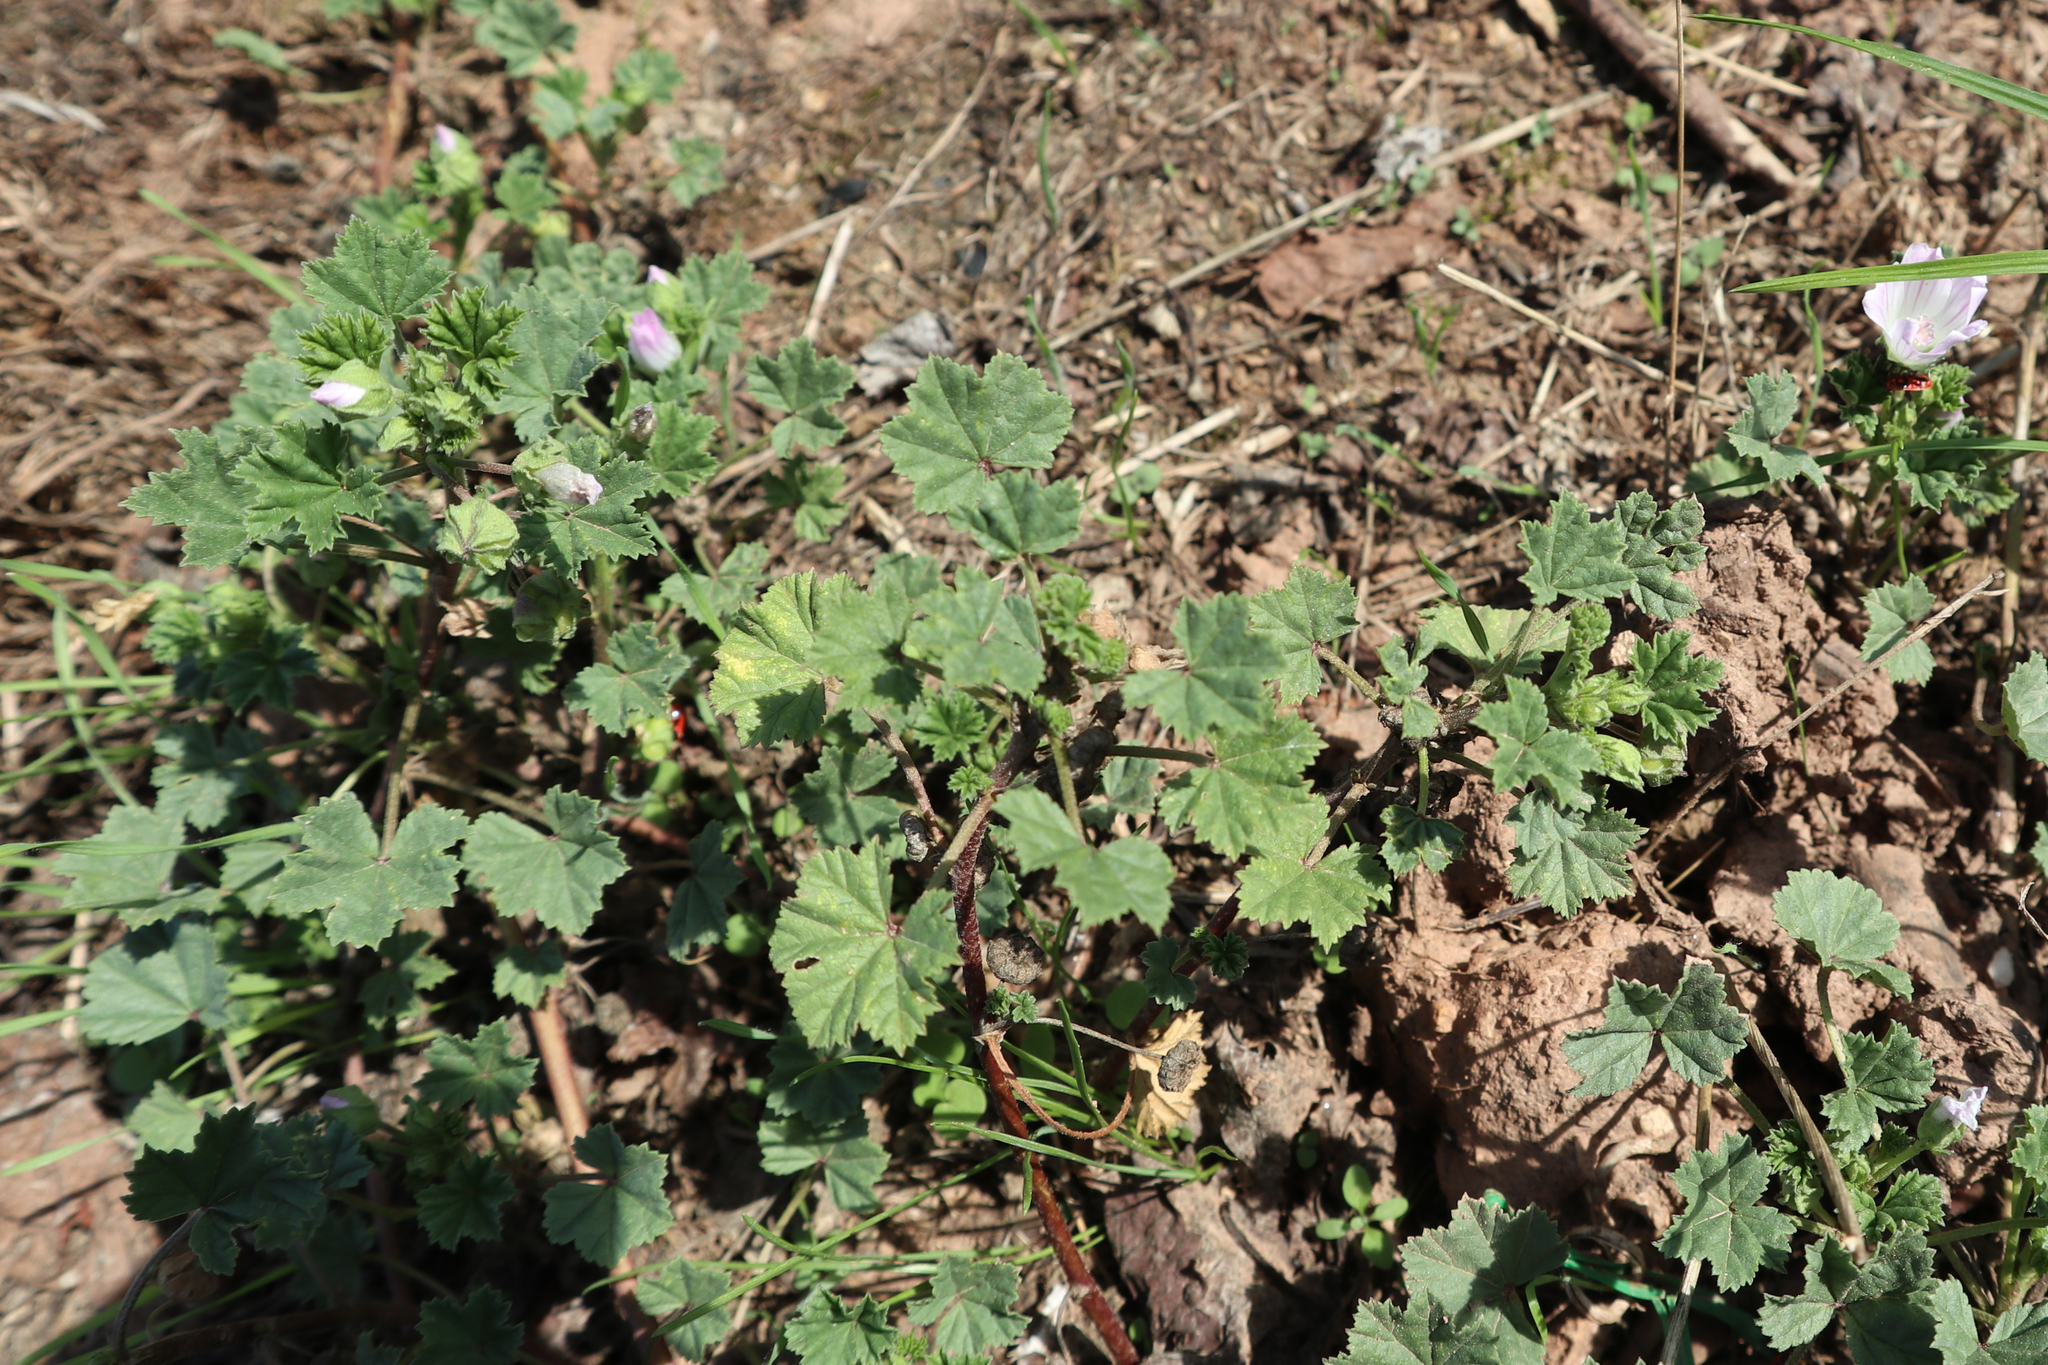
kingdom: Plantae
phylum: Tracheophyta
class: Magnoliopsida
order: Malvales
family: Malvaceae
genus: Malva
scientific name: Malva neglecta
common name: Common mallow
